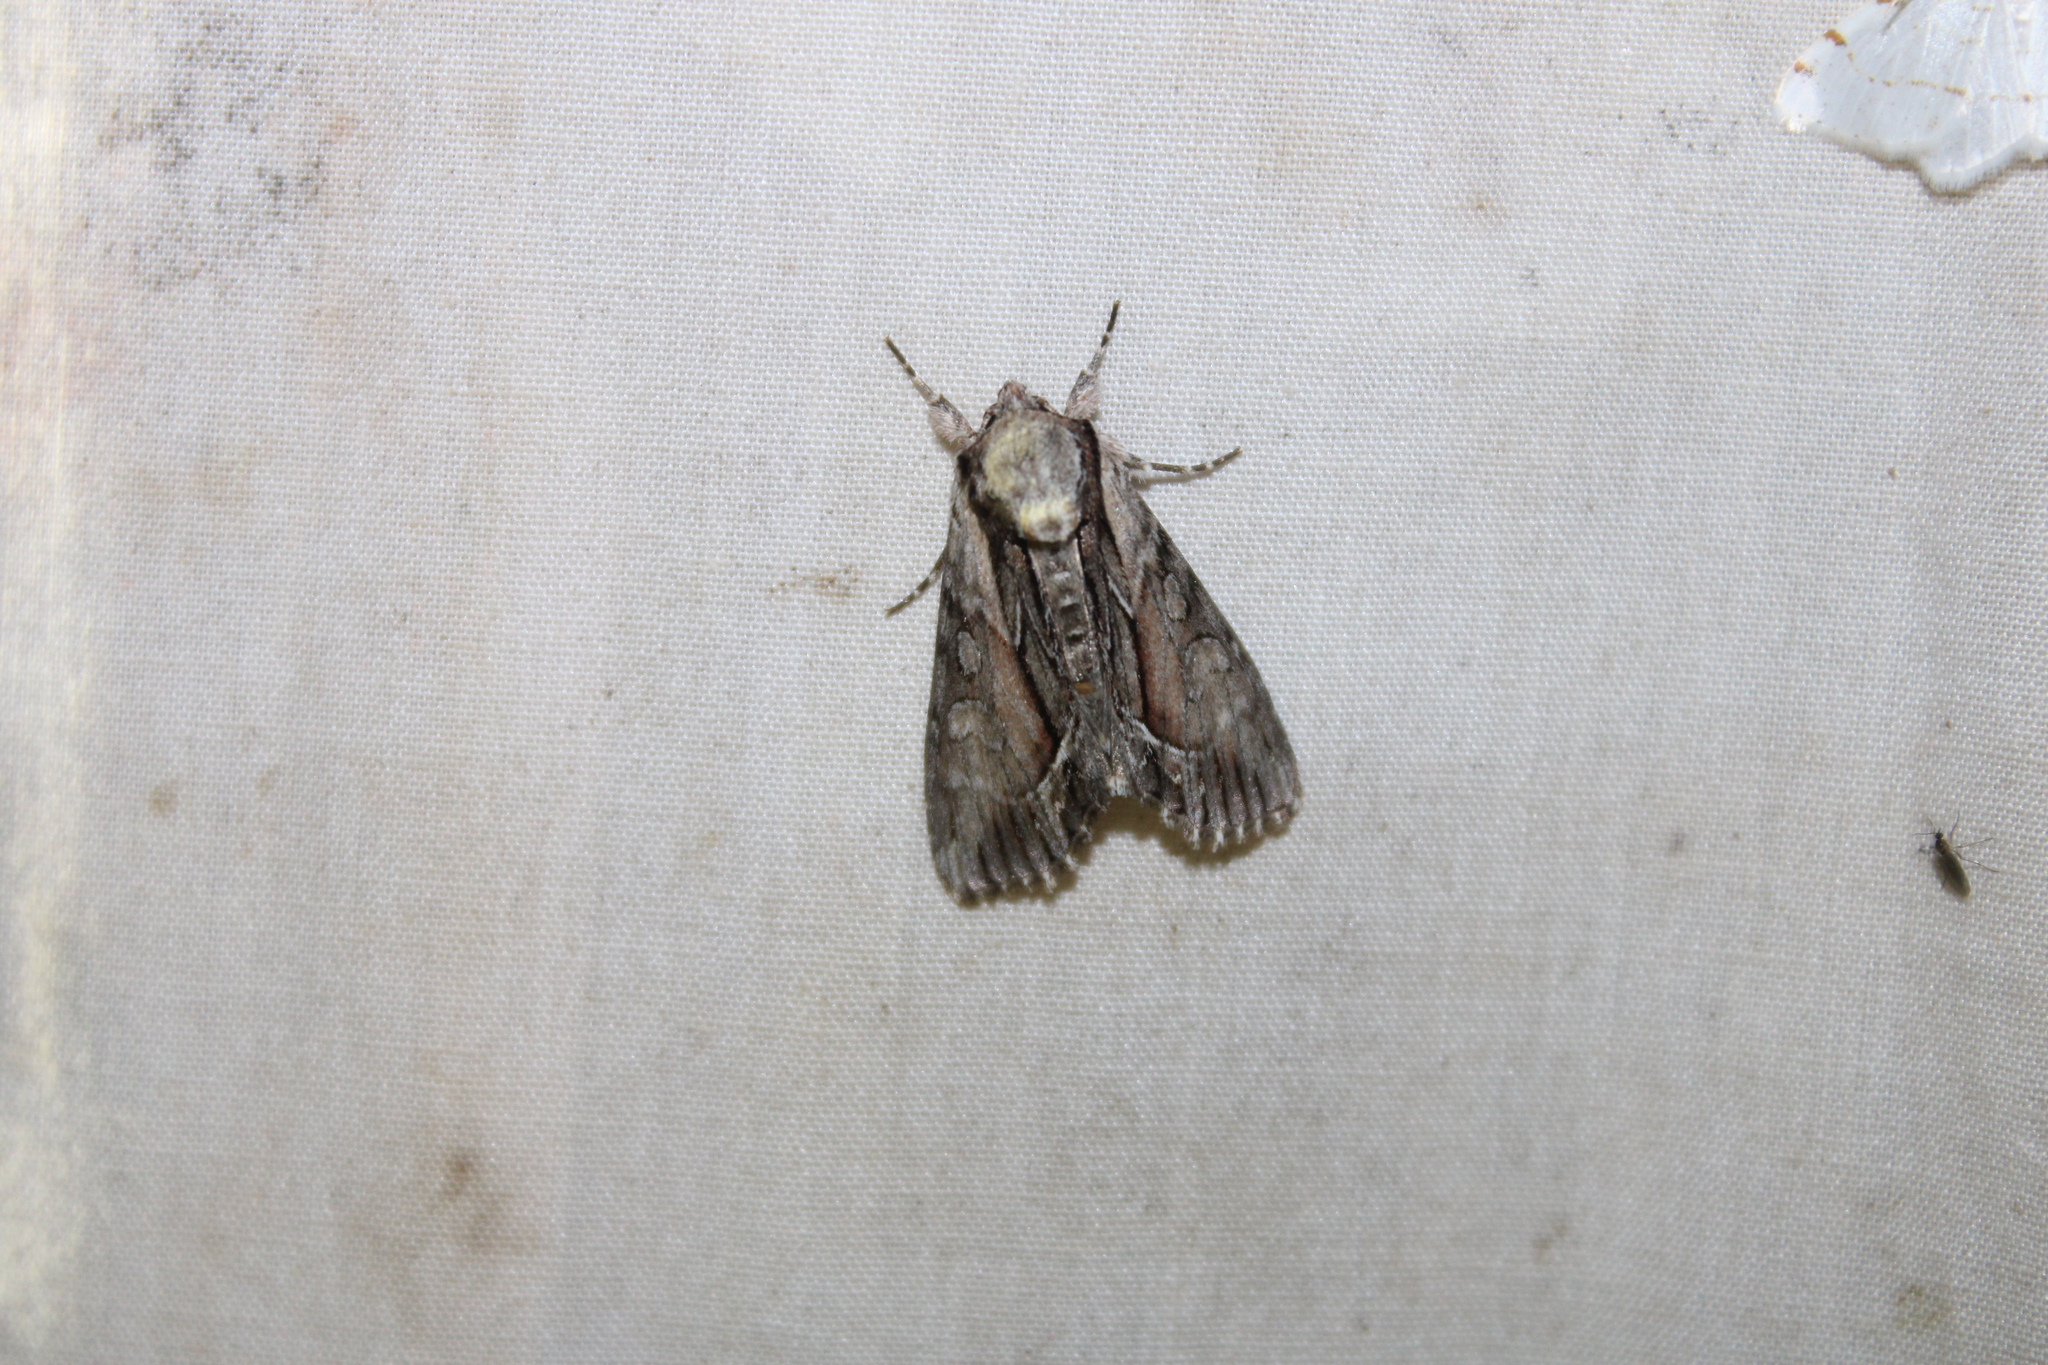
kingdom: Animalia
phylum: Arthropoda
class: Insecta
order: Lepidoptera
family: Noctuidae
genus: Hyppa
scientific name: Hyppa xylinoides
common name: Common hyppa moth
